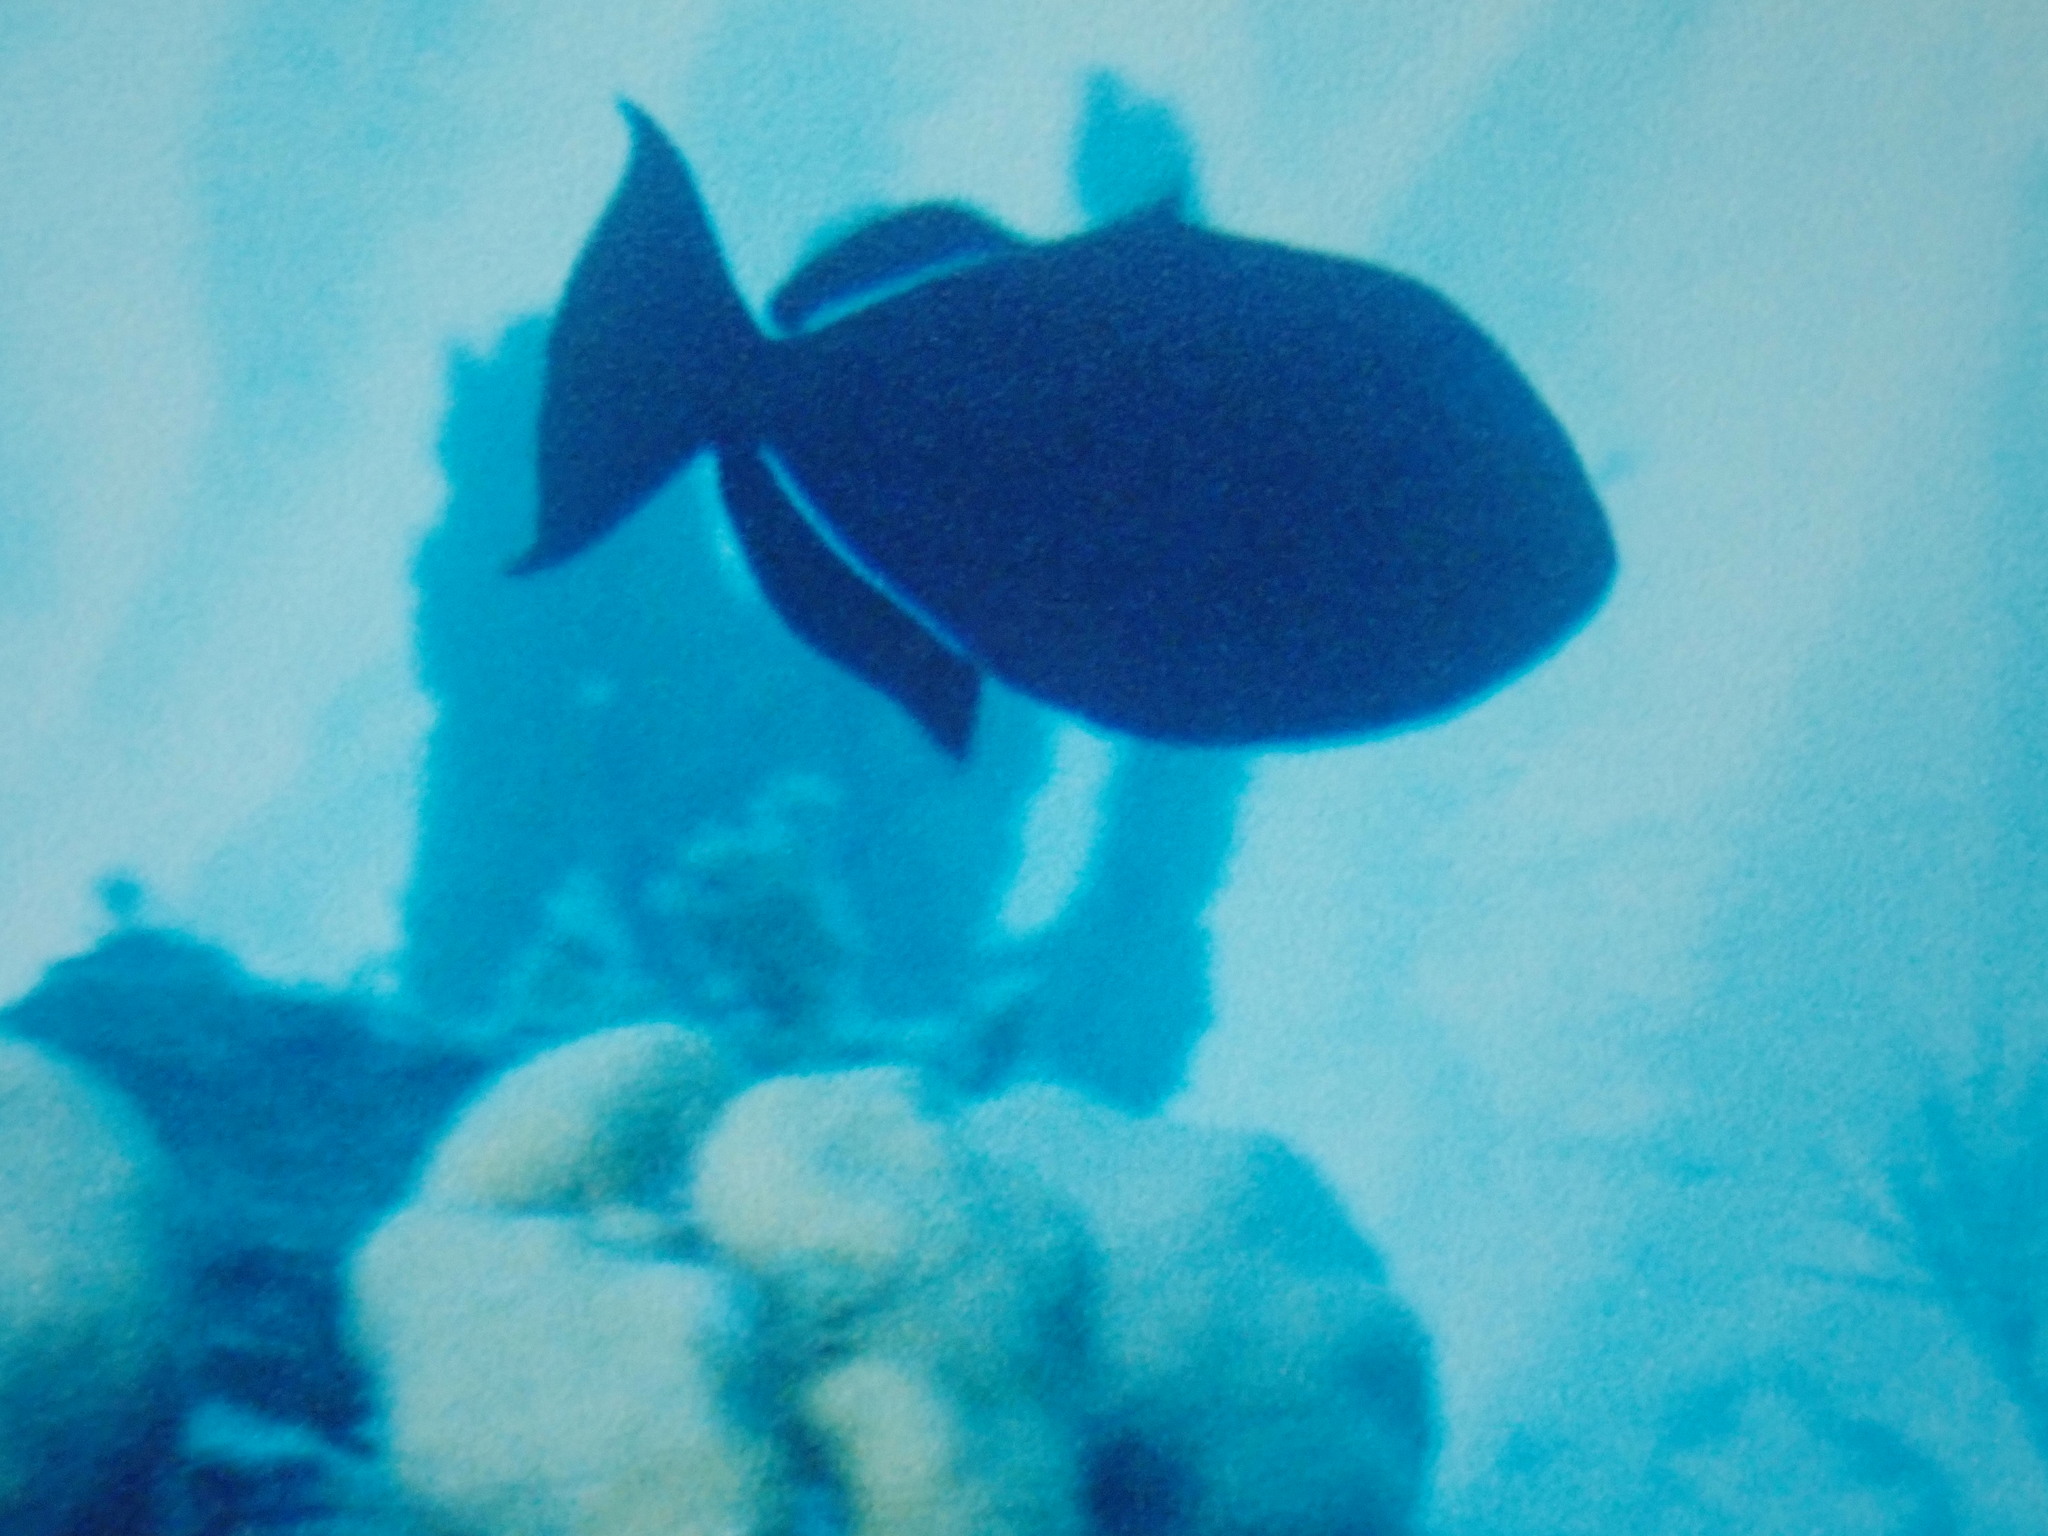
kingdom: Animalia
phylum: Chordata
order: Tetraodontiformes
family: Balistidae
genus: Melichthys
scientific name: Melichthys niger
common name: Black durgon
